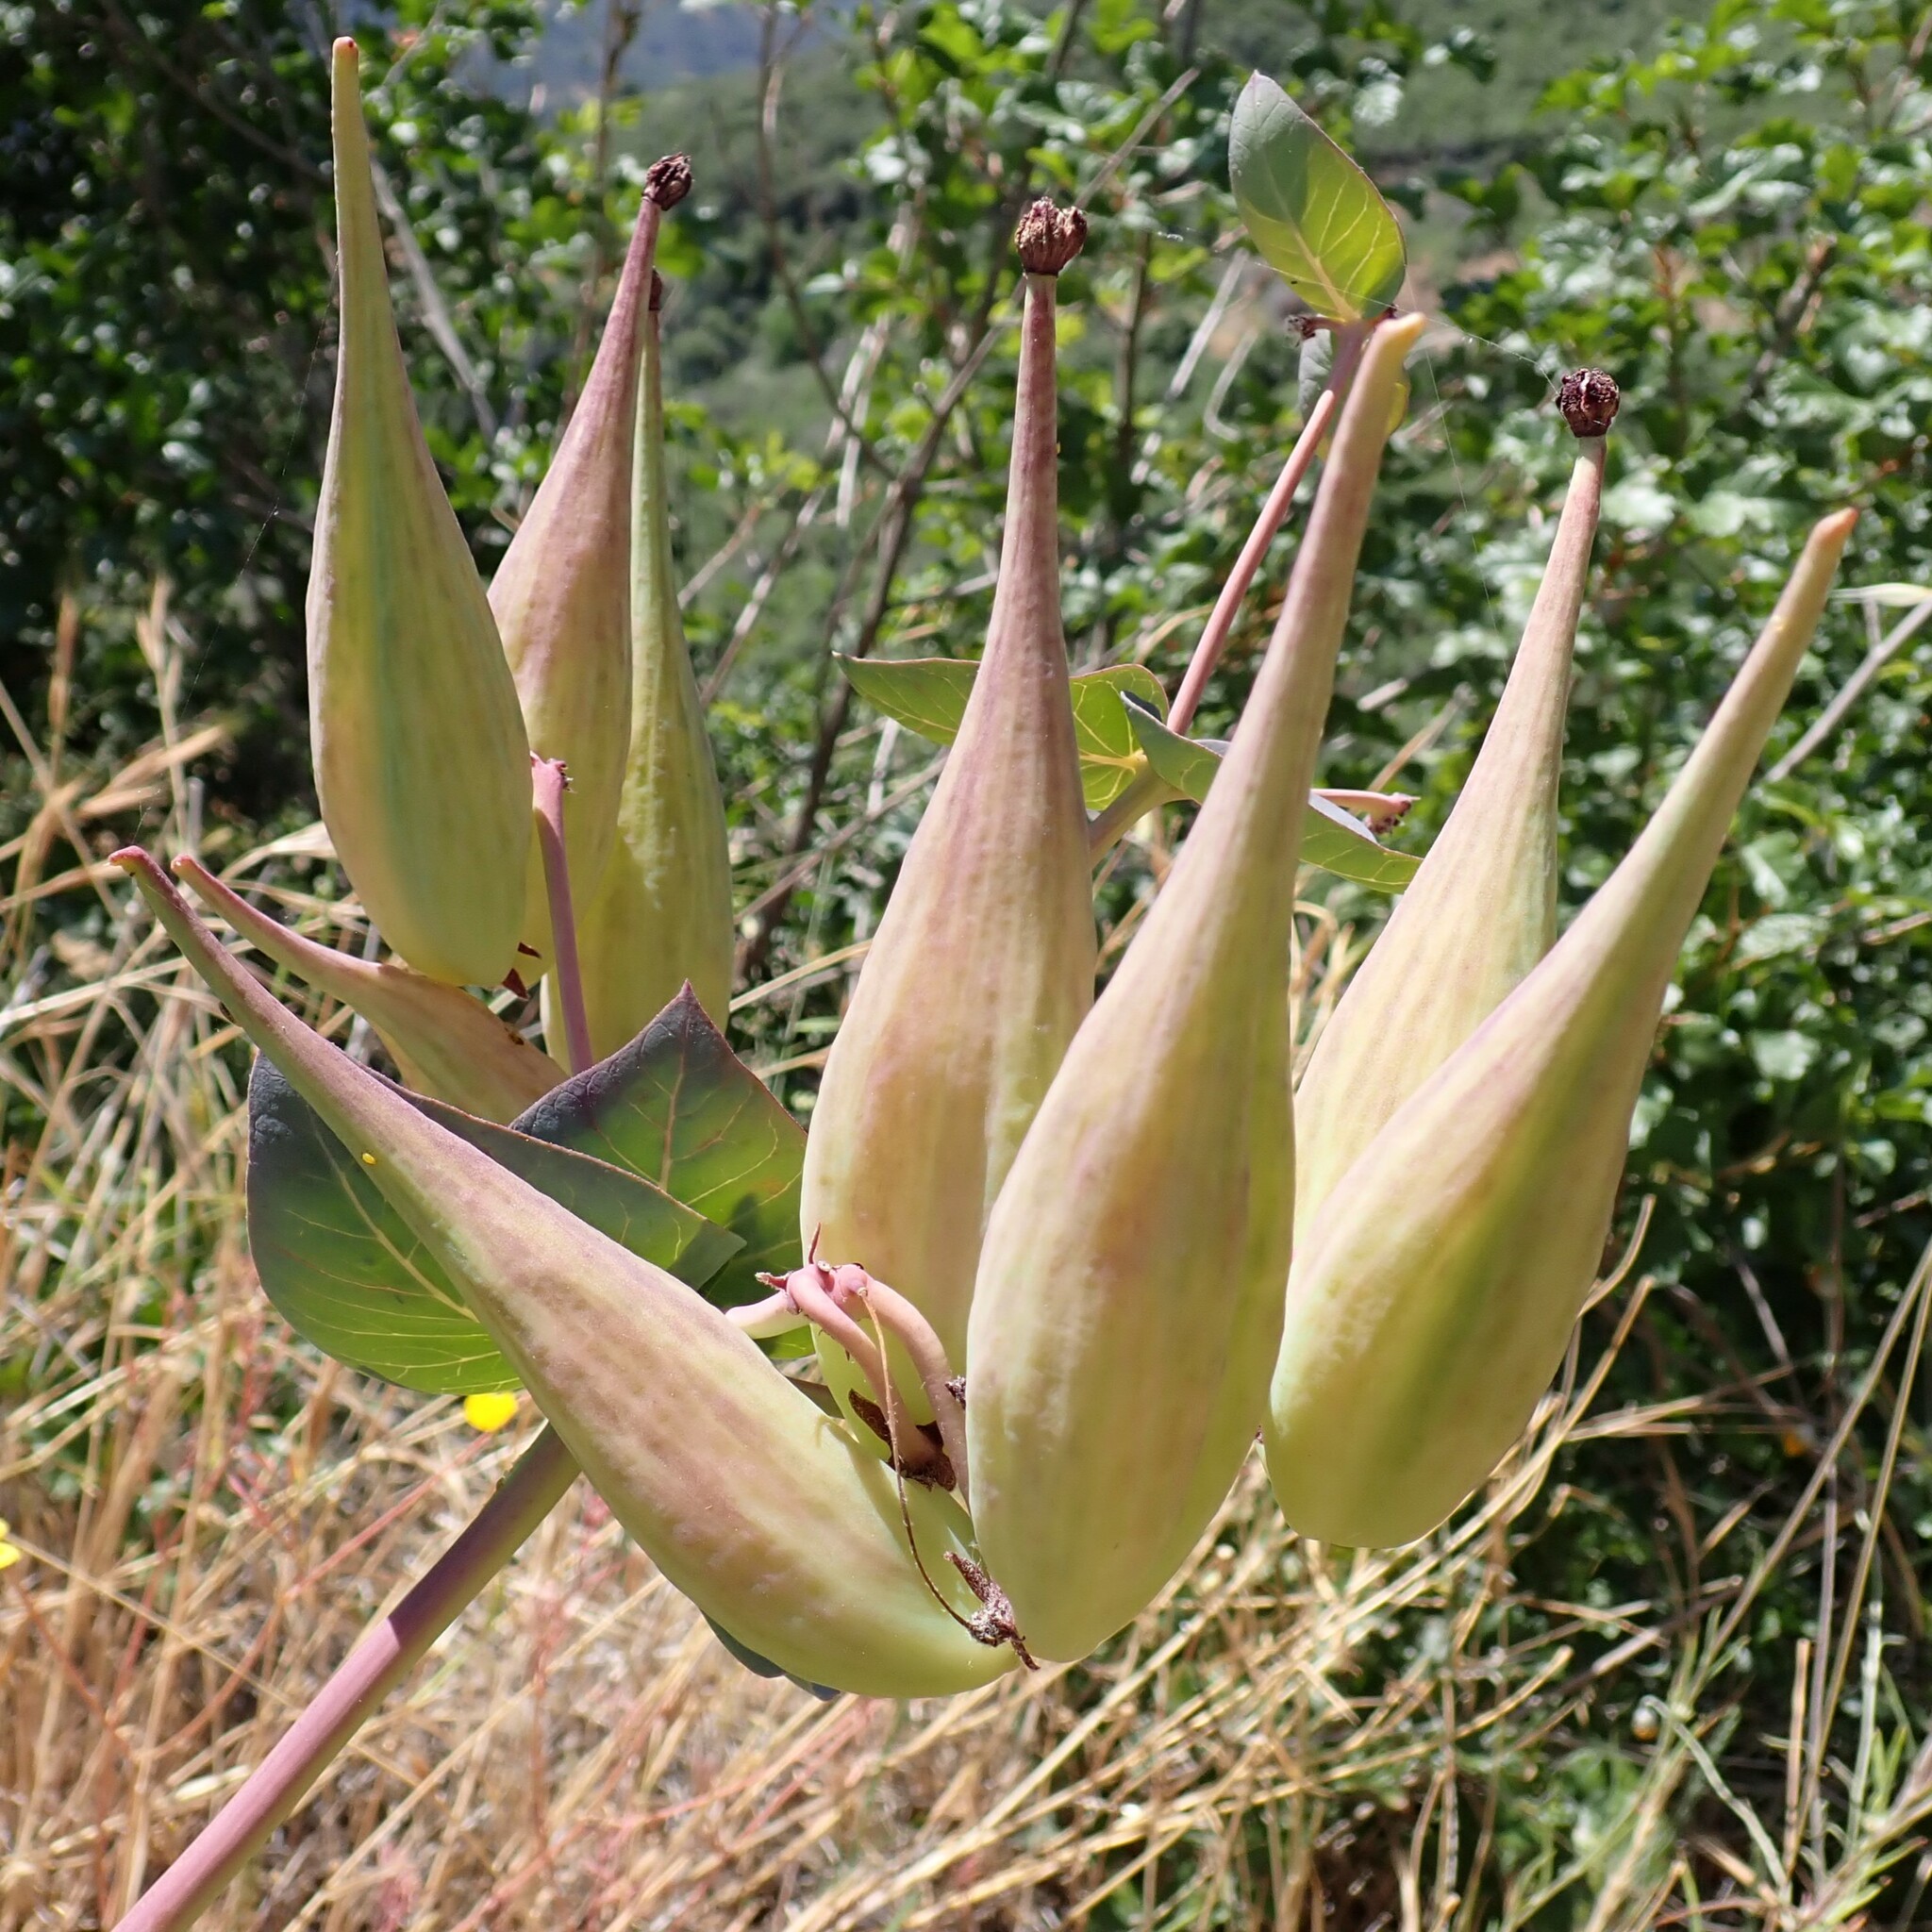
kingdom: Plantae
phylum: Tracheophyta
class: Magnoliopsida
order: Gentianales
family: Apocynaceae
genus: Asclepias
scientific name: Asclepias cordifolia
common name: Purple milkweed
